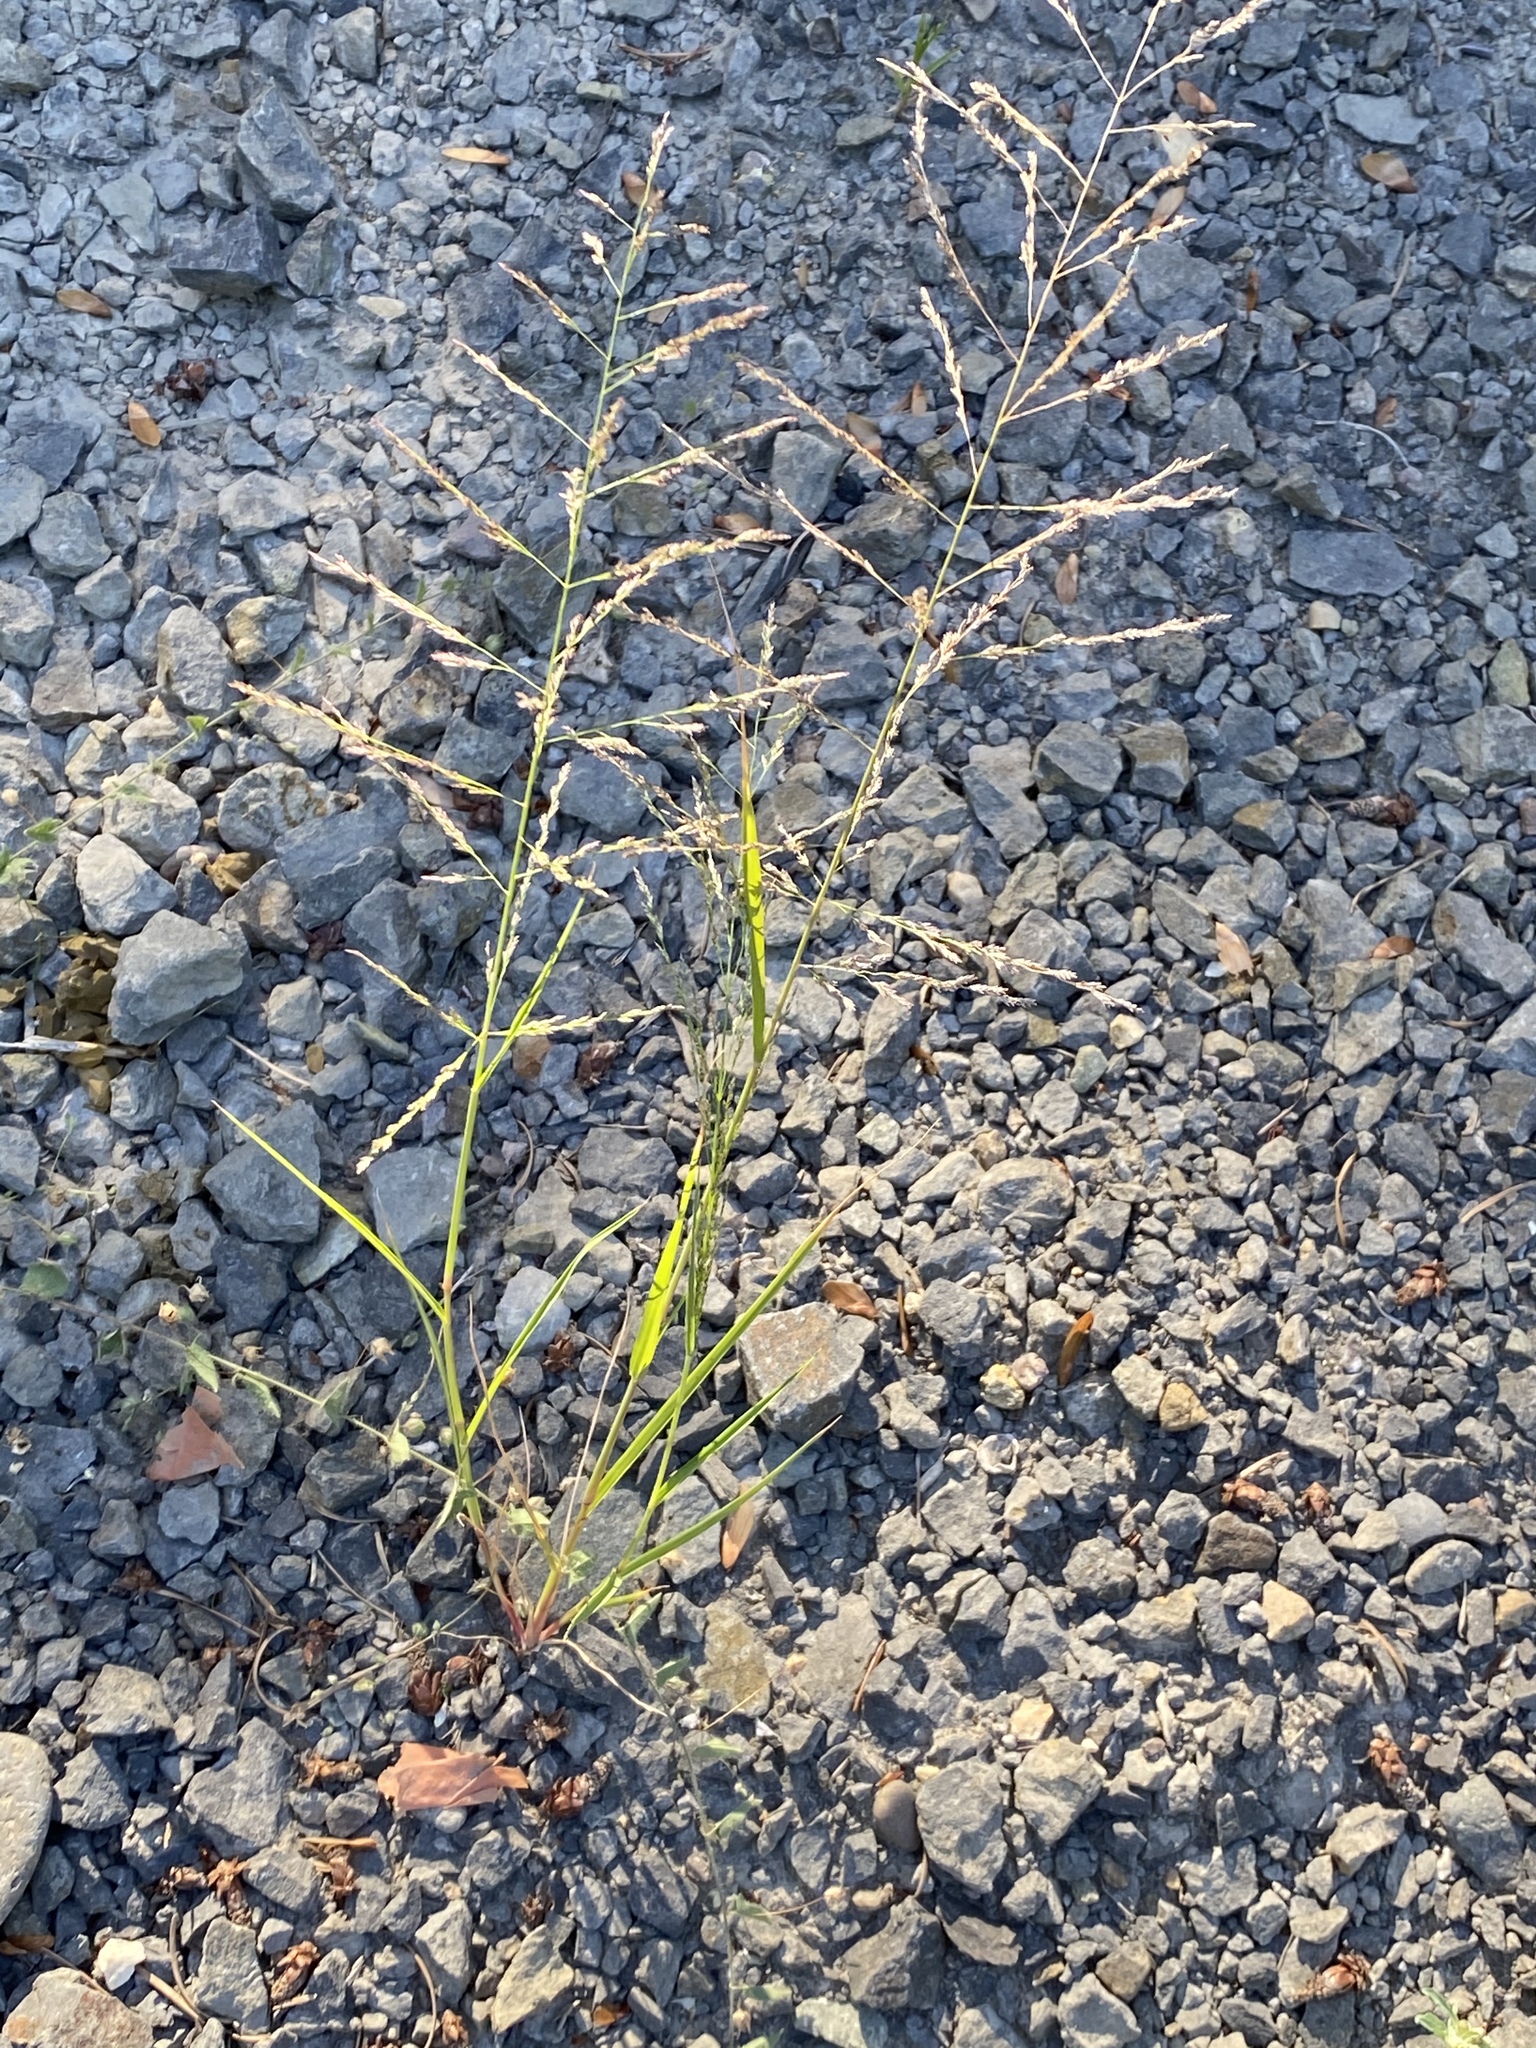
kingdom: Plantae
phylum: Tracheophyta
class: Liliopsida
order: Poales
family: Poaceae
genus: Diplachne
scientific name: Diplachne fusca
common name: Brown beetle grass
